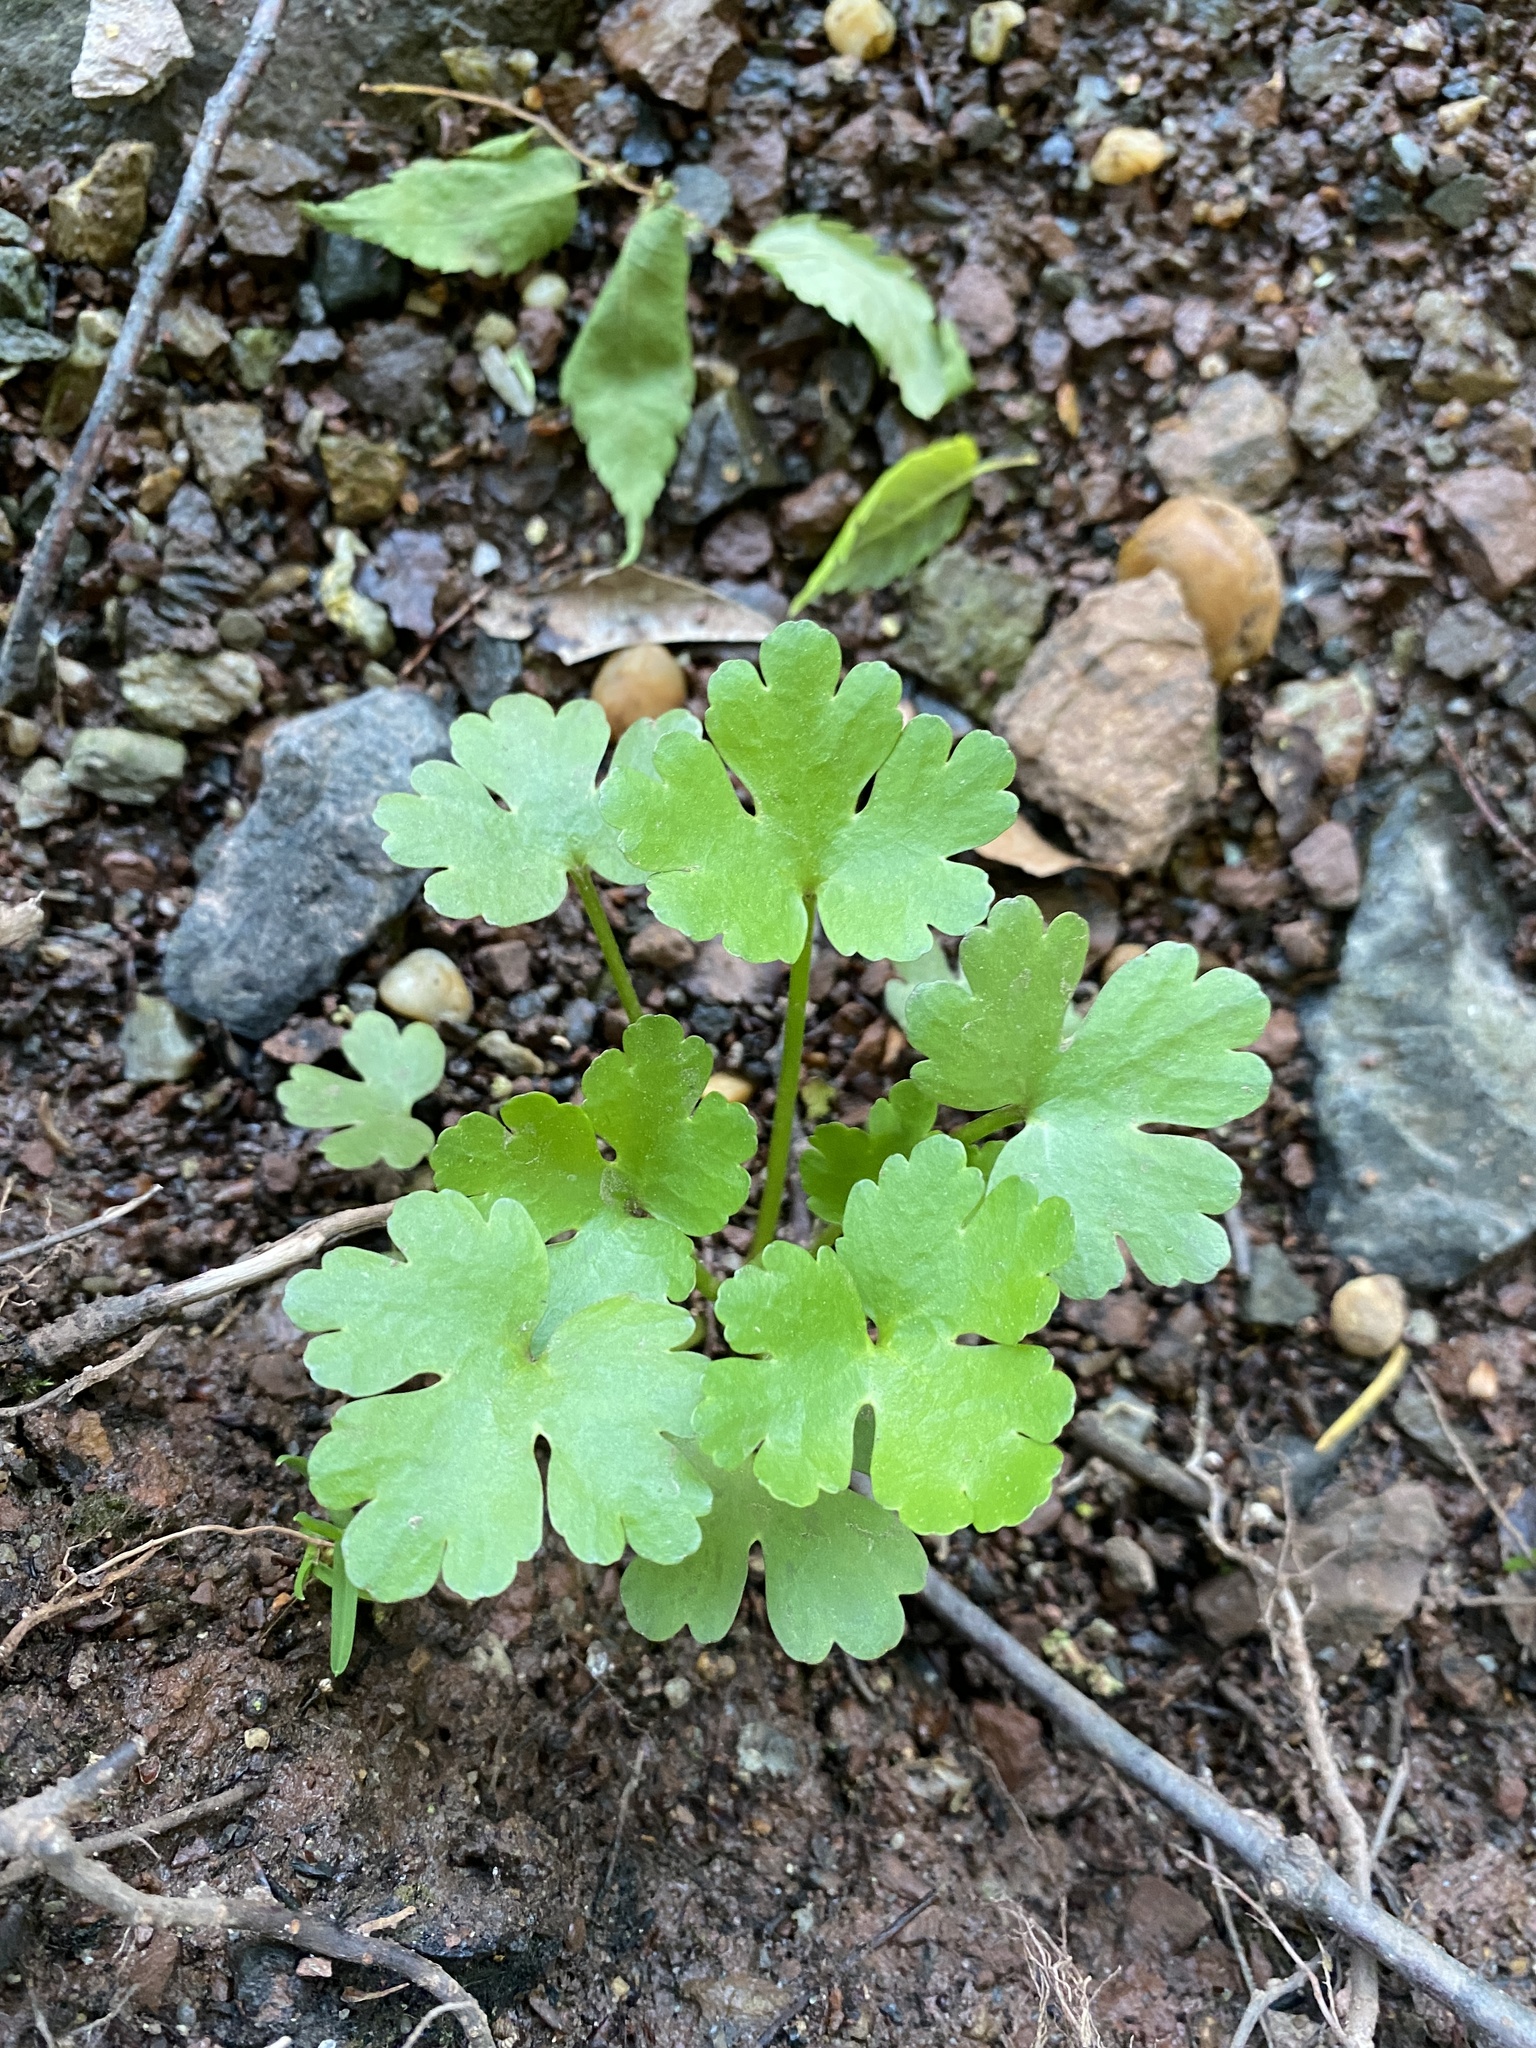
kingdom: Plantae
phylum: Tracheophyta
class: Magnoliopsida
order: Ranunculales
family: Ranunculaceae
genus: Ranunculus
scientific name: Ranunculus sceleratus
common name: Celery-leaved buttercup
